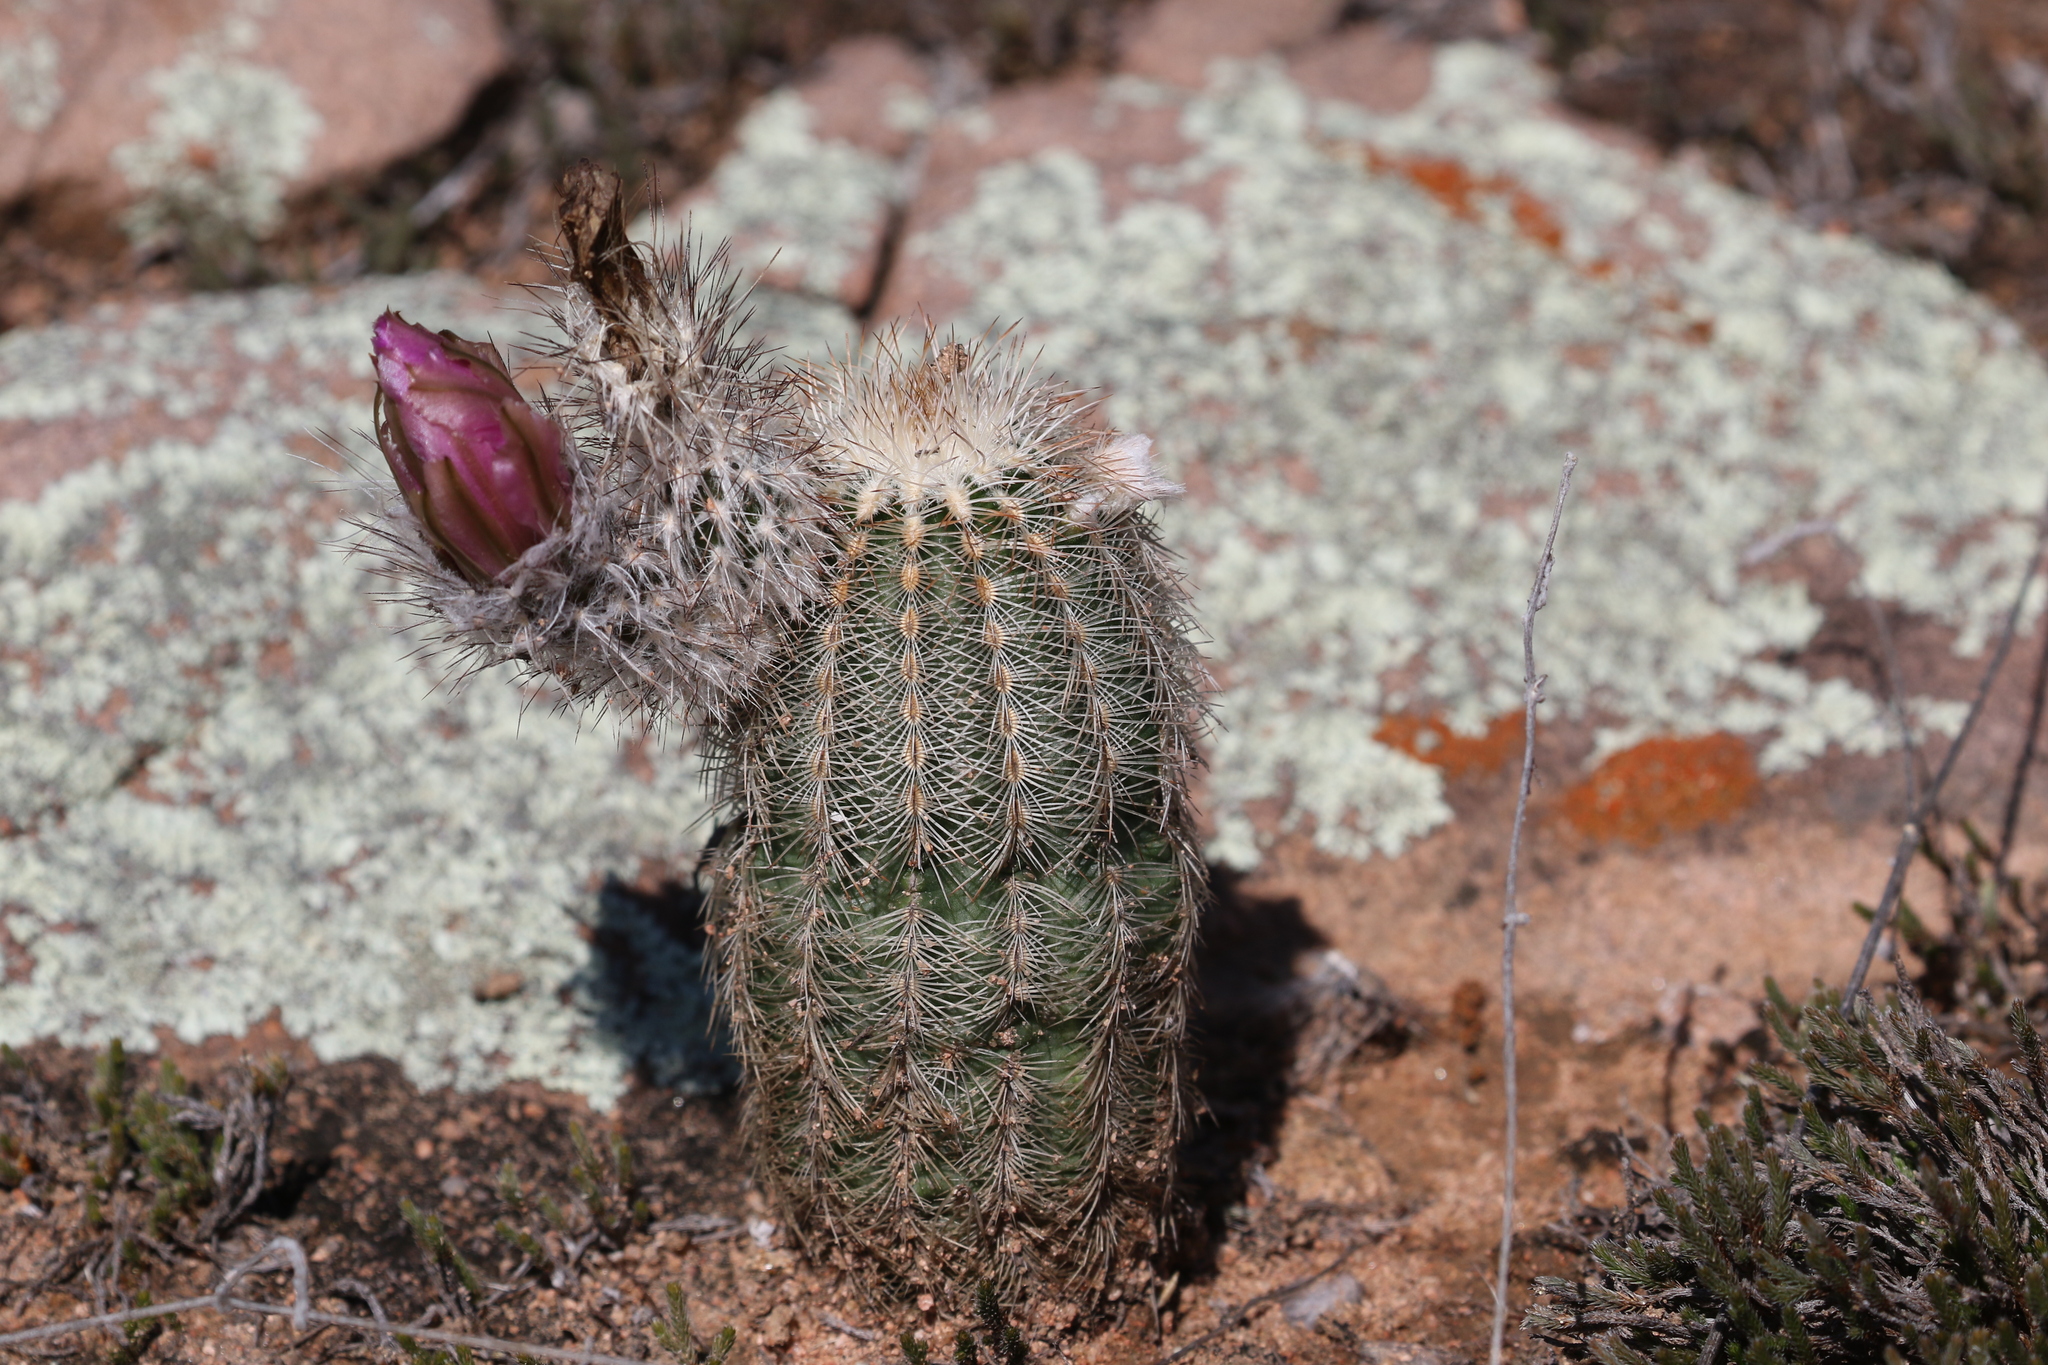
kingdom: Plantae
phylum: Tracheophyta
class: Magnoliopsida
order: Caryophyllales
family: Cactaceae
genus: Echinocereus
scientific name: Echinocereus reichenbachii
